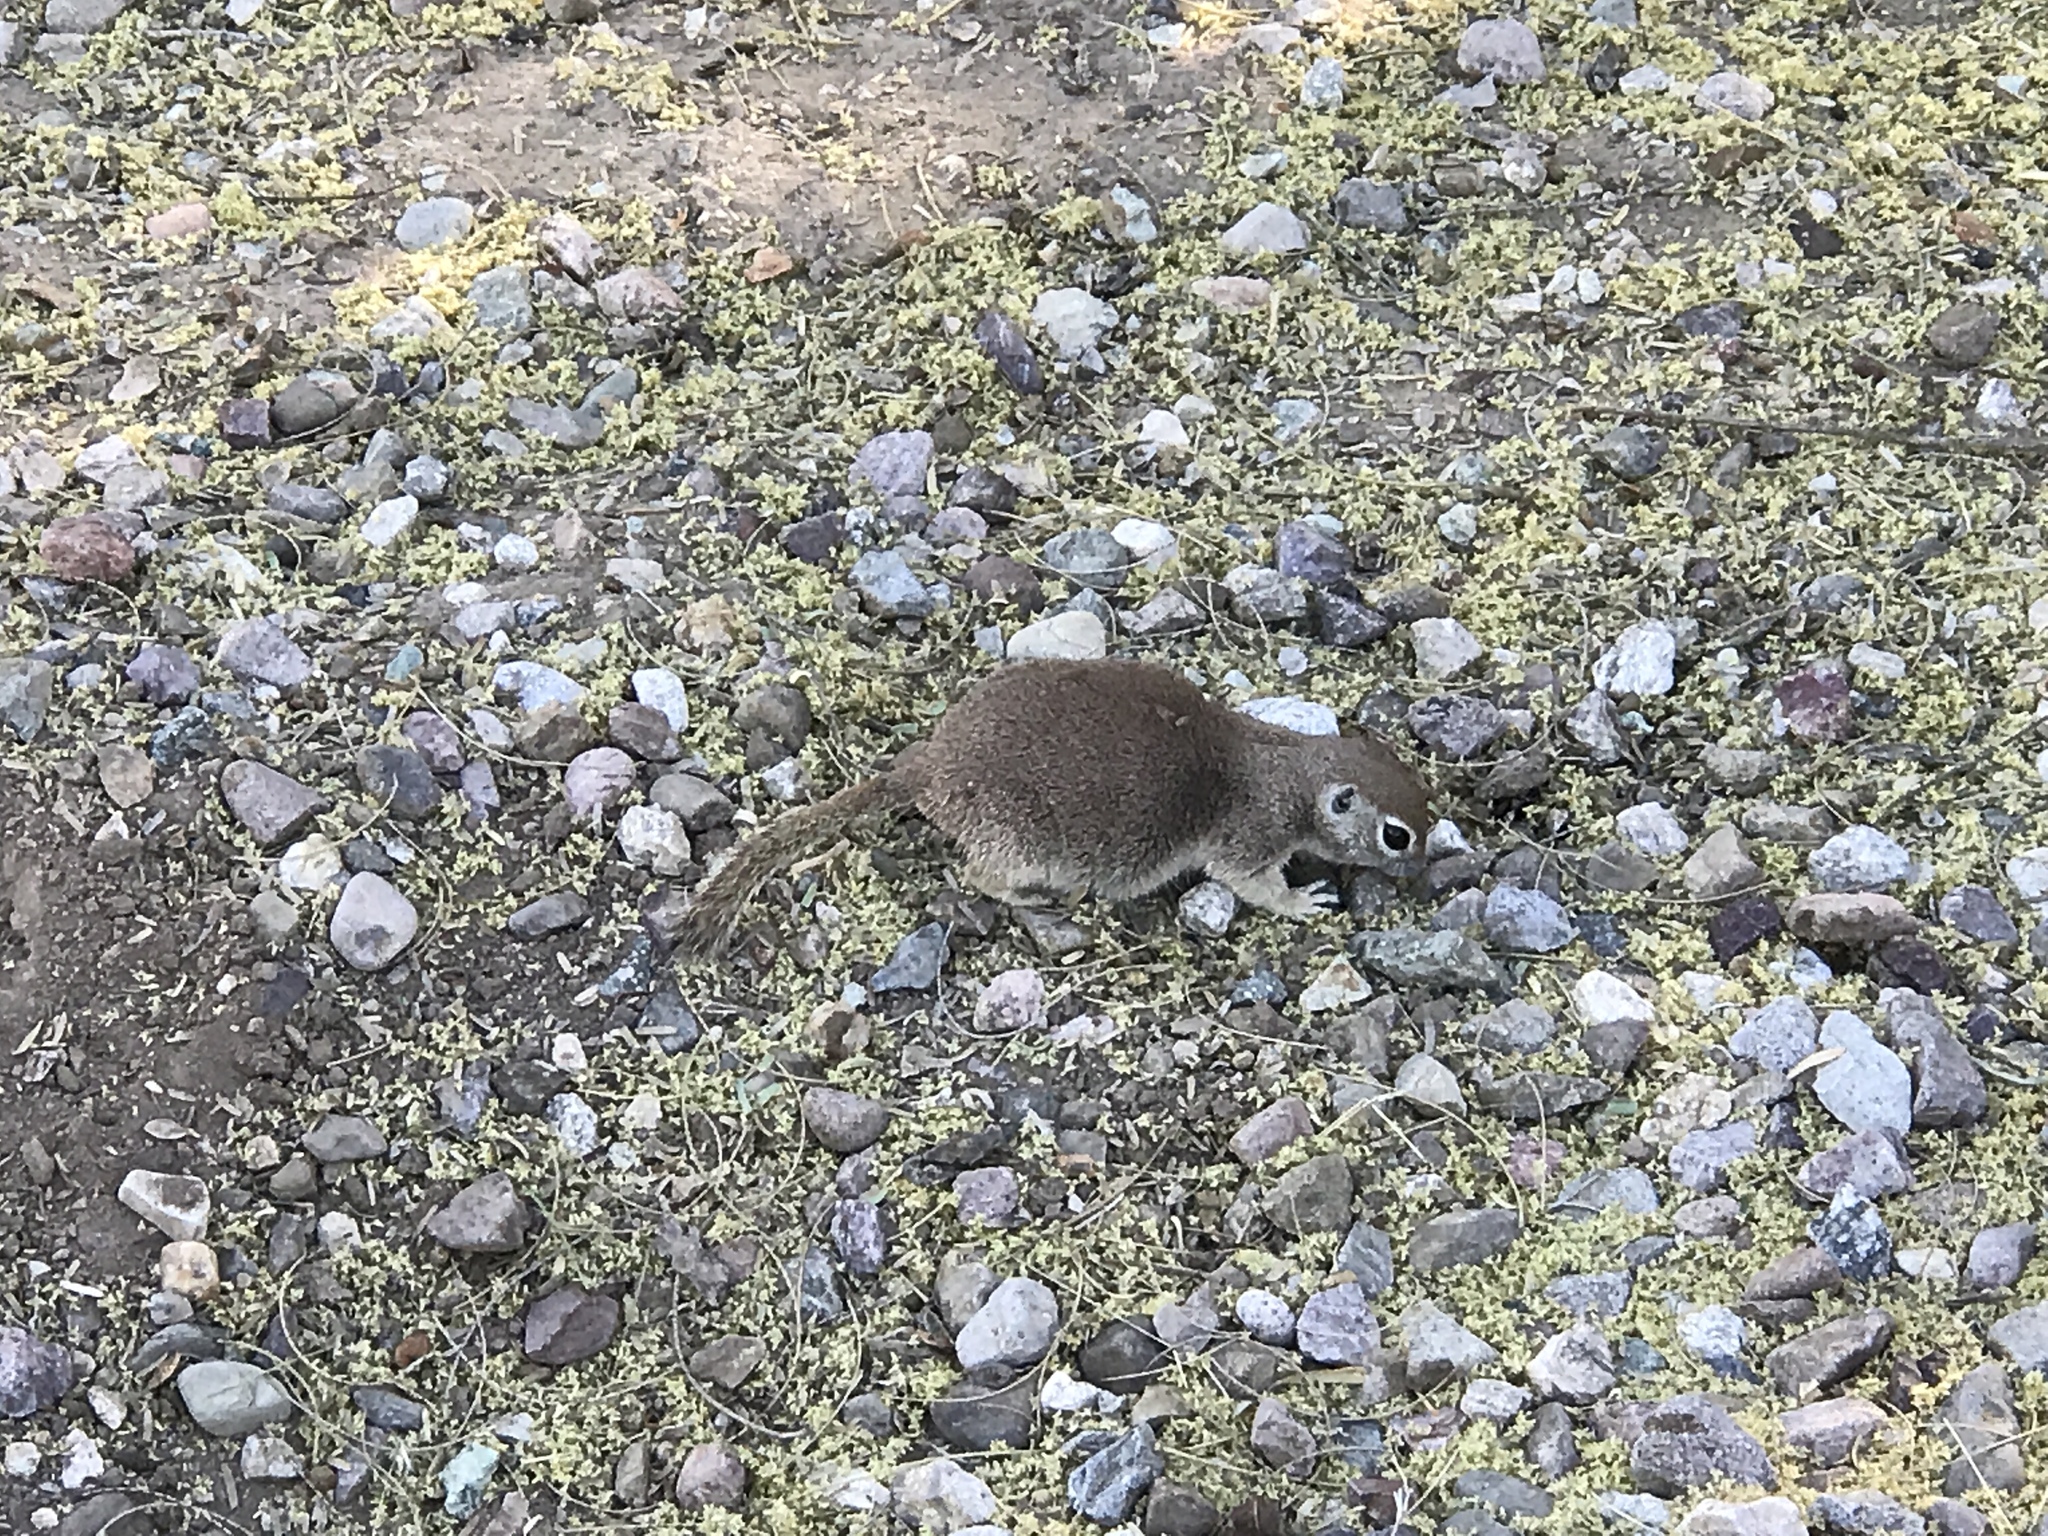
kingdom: Animalia
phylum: Chordata
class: Mammalia
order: Rodentia
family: Sciuridae
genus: Xerospermophilus
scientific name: Xerospermophilus tereticaudus
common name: Round-tailed ground squirrel
